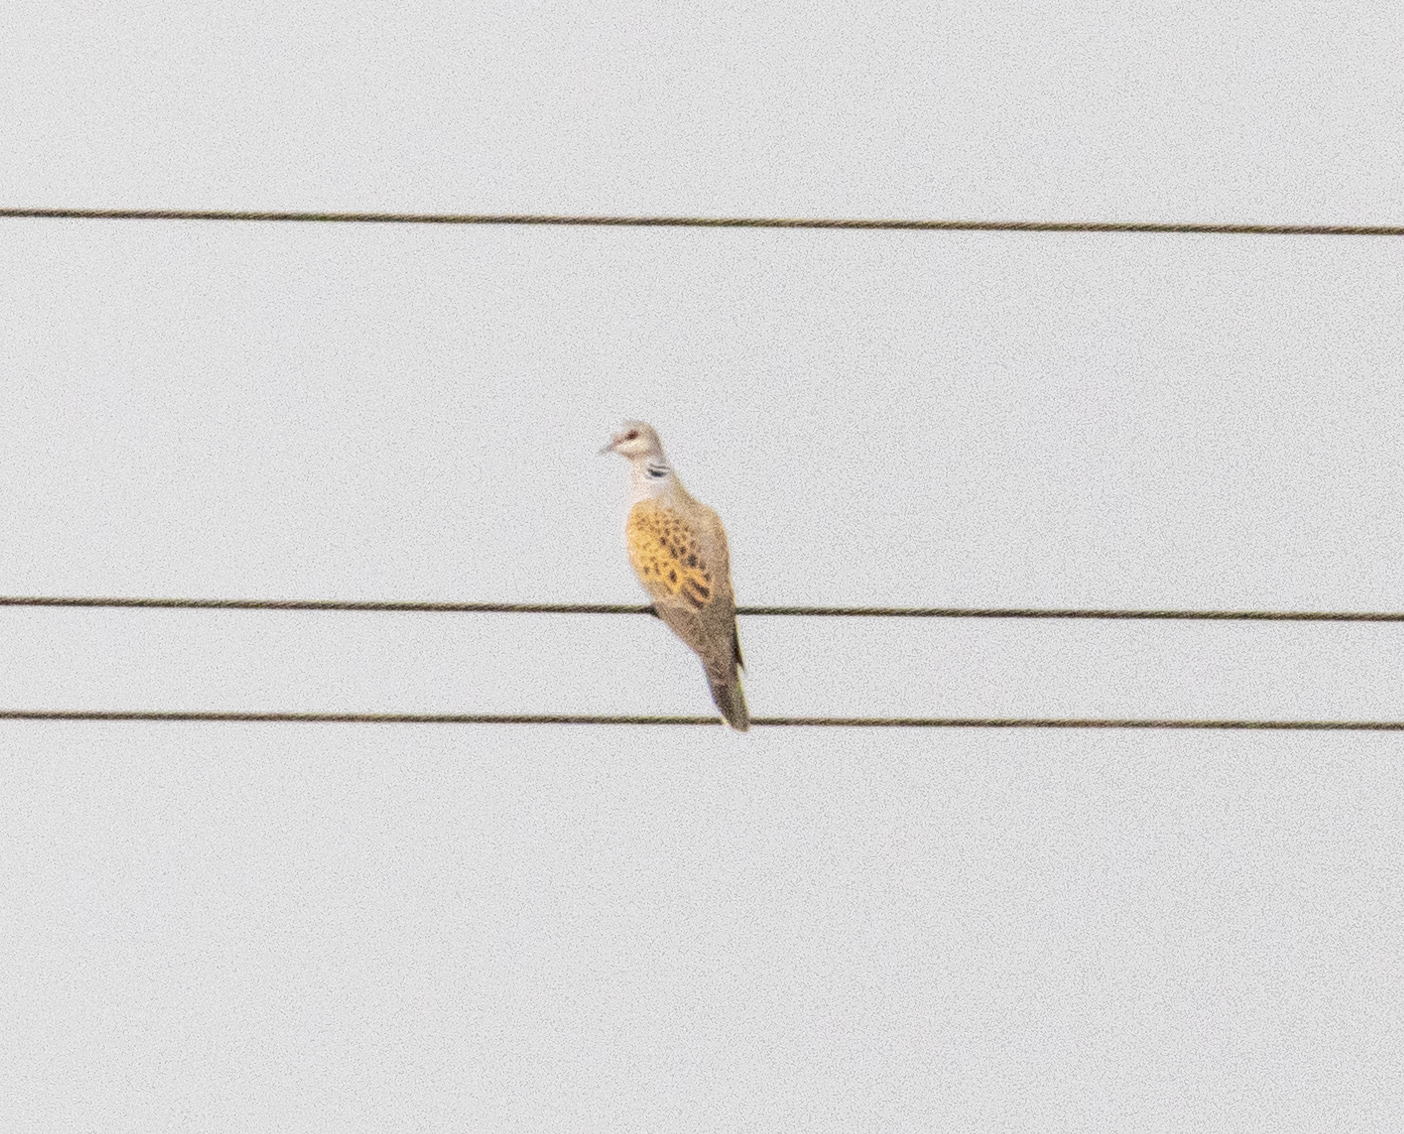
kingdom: Animalia
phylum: Chordata
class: Aves
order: Columbiformes
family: Columbidae
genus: Streptopelia
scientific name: Streptopelia turtur
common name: European turtle dove
